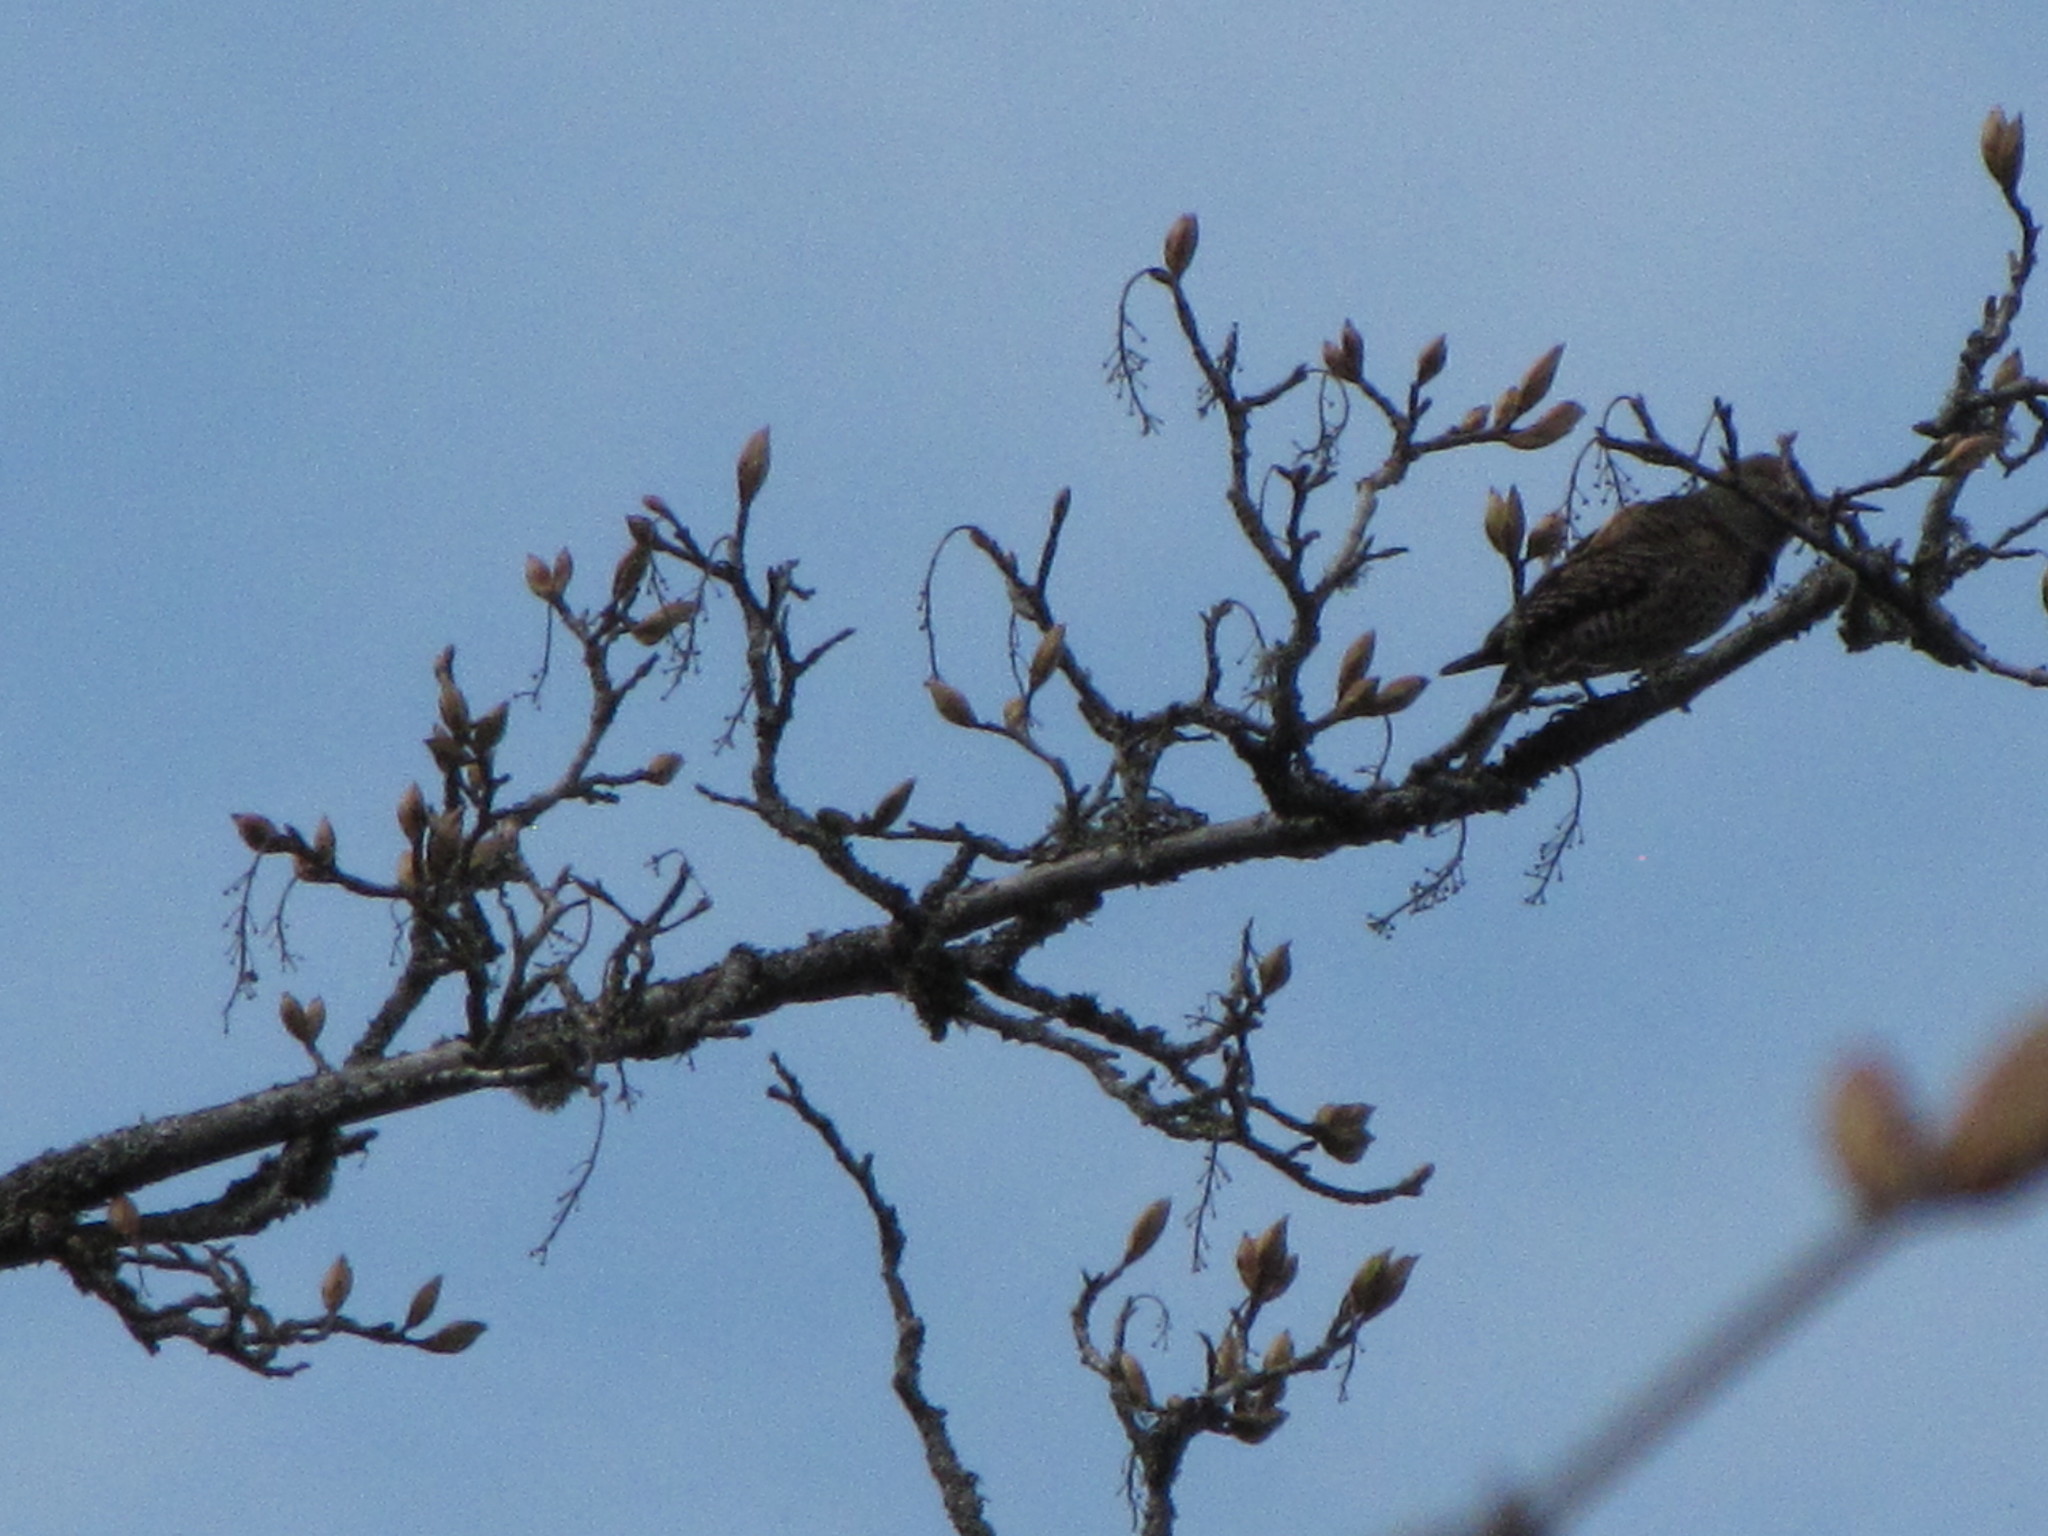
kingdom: Animalia
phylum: Chordata
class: Aves
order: Piciformes
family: Picidae
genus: Colaptes
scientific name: Colaptes auratus
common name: Northern flicker
